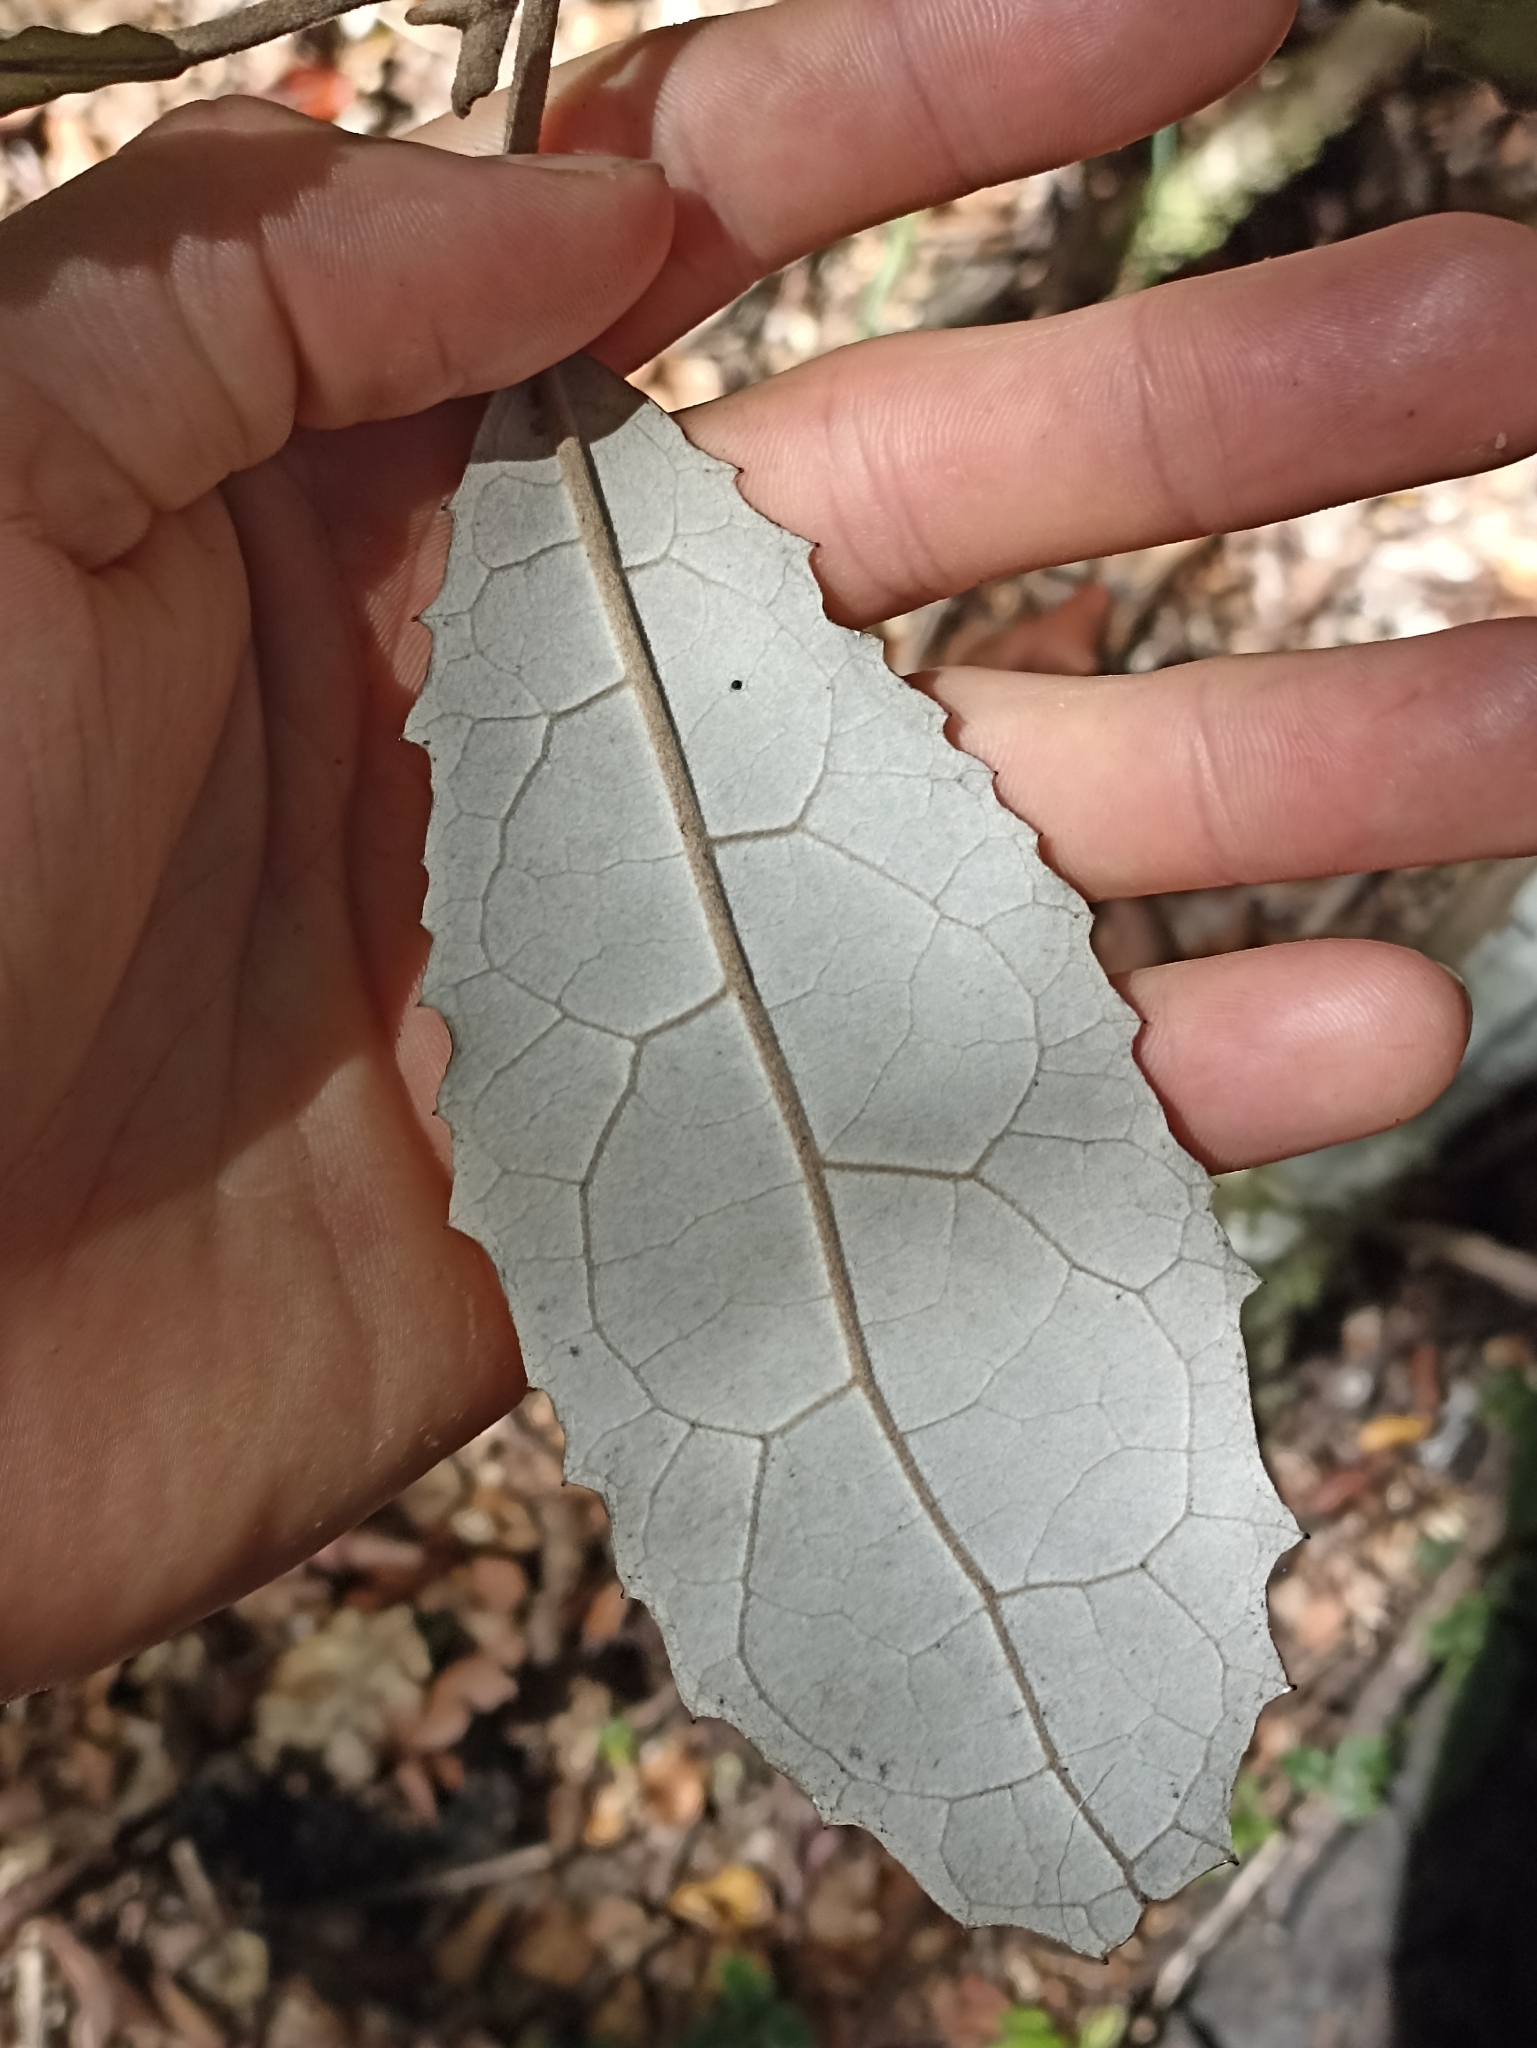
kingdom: Plantae
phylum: Tracheophyta
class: Magnoliopsida
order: Asterales
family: Asteraceae
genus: Olearia
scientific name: Olearia rani
